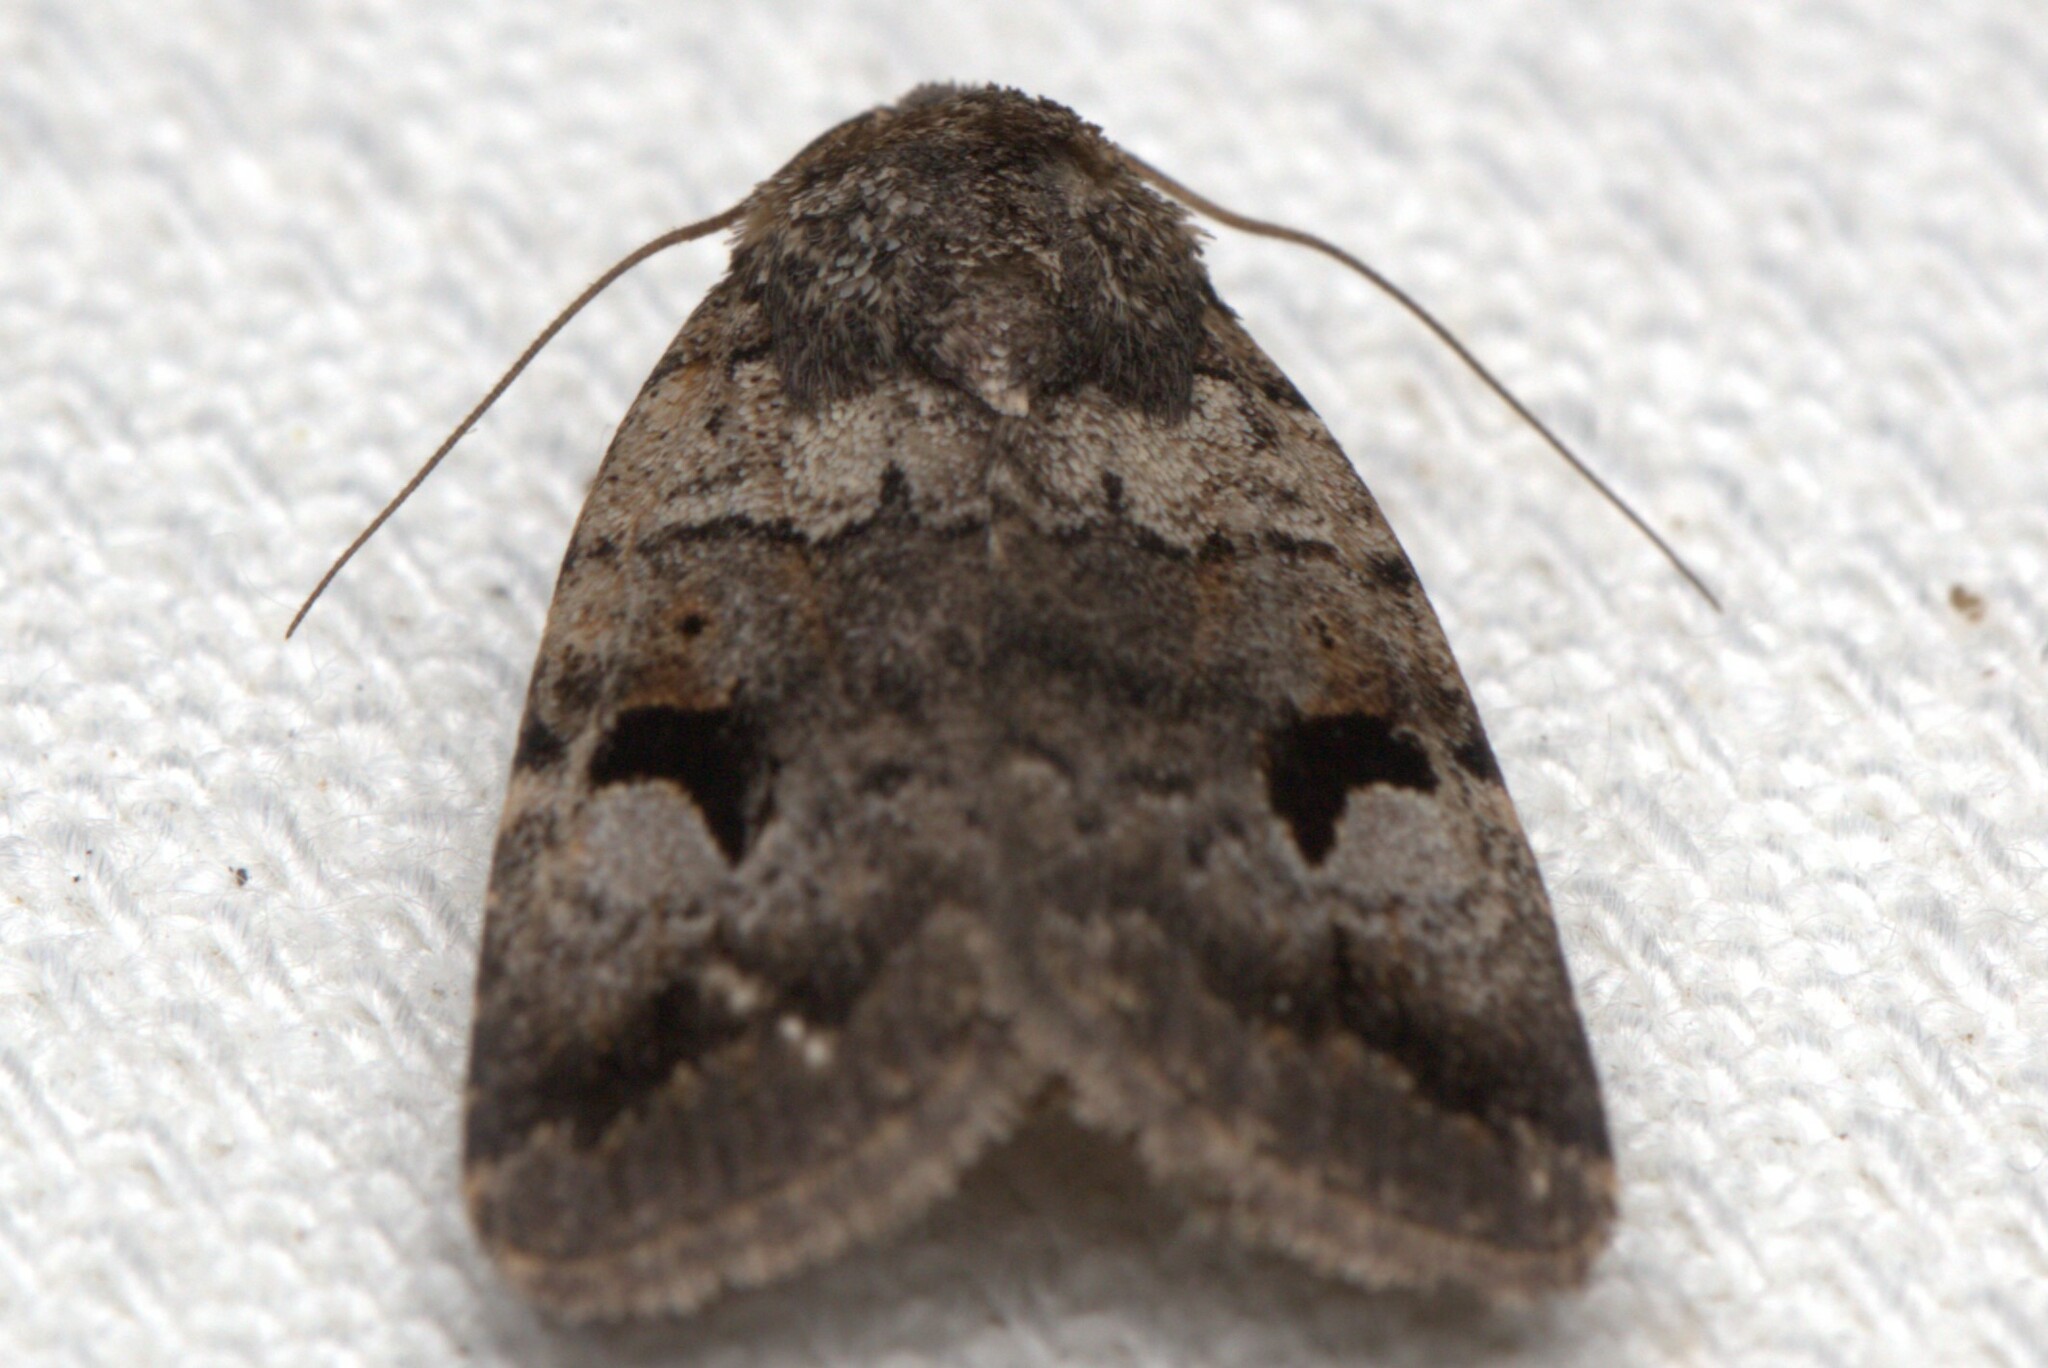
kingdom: Animalia
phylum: Arthropoda
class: Insecta
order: Lepidoptera
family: Noctuidae
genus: Thoracolopha
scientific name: Thoracolopha flexirena
